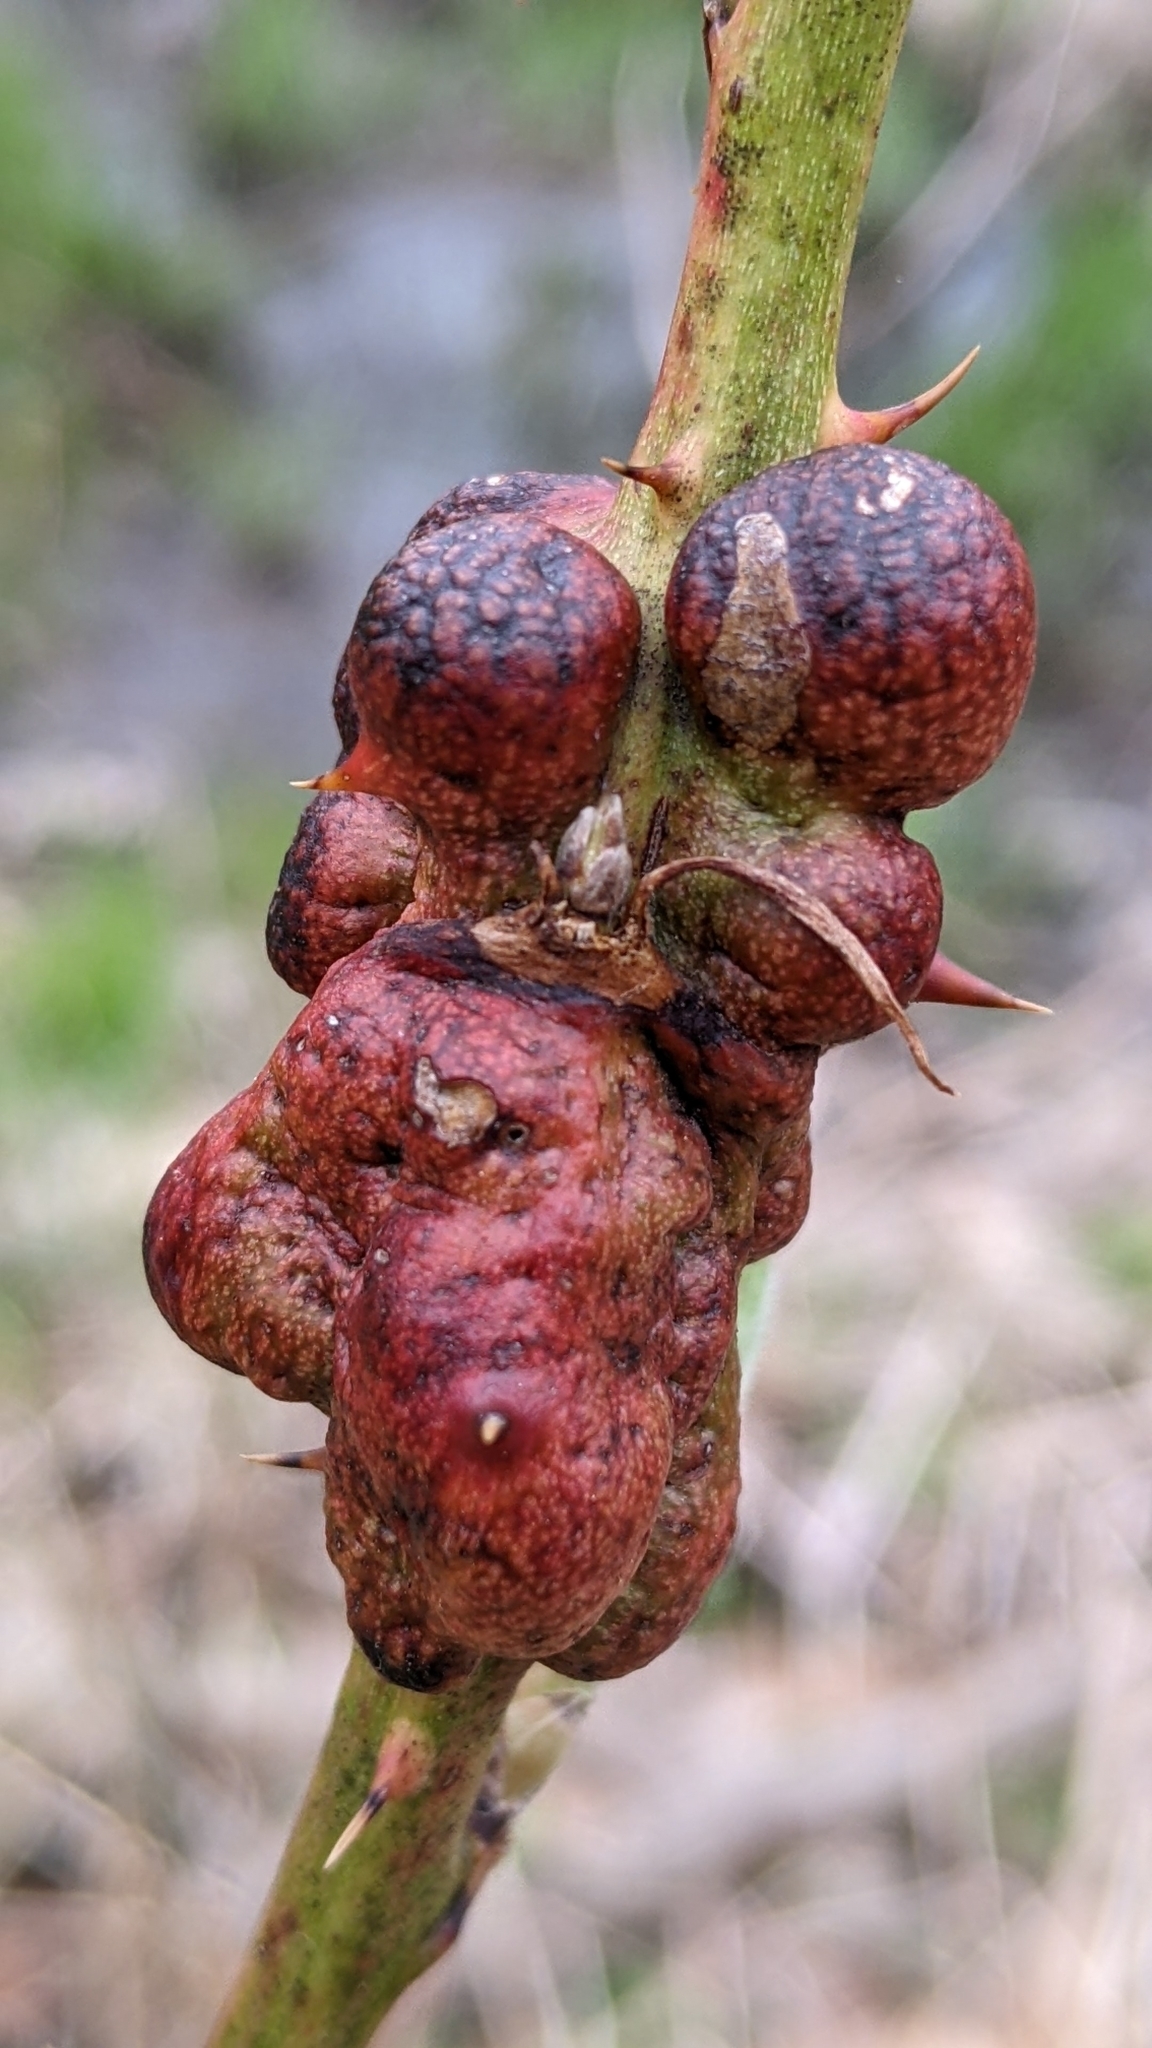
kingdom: Animalia
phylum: Arthropoda
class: Insecta
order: Hymenoptera
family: Cynipidae
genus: Diastrophus
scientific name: Diastrophus
